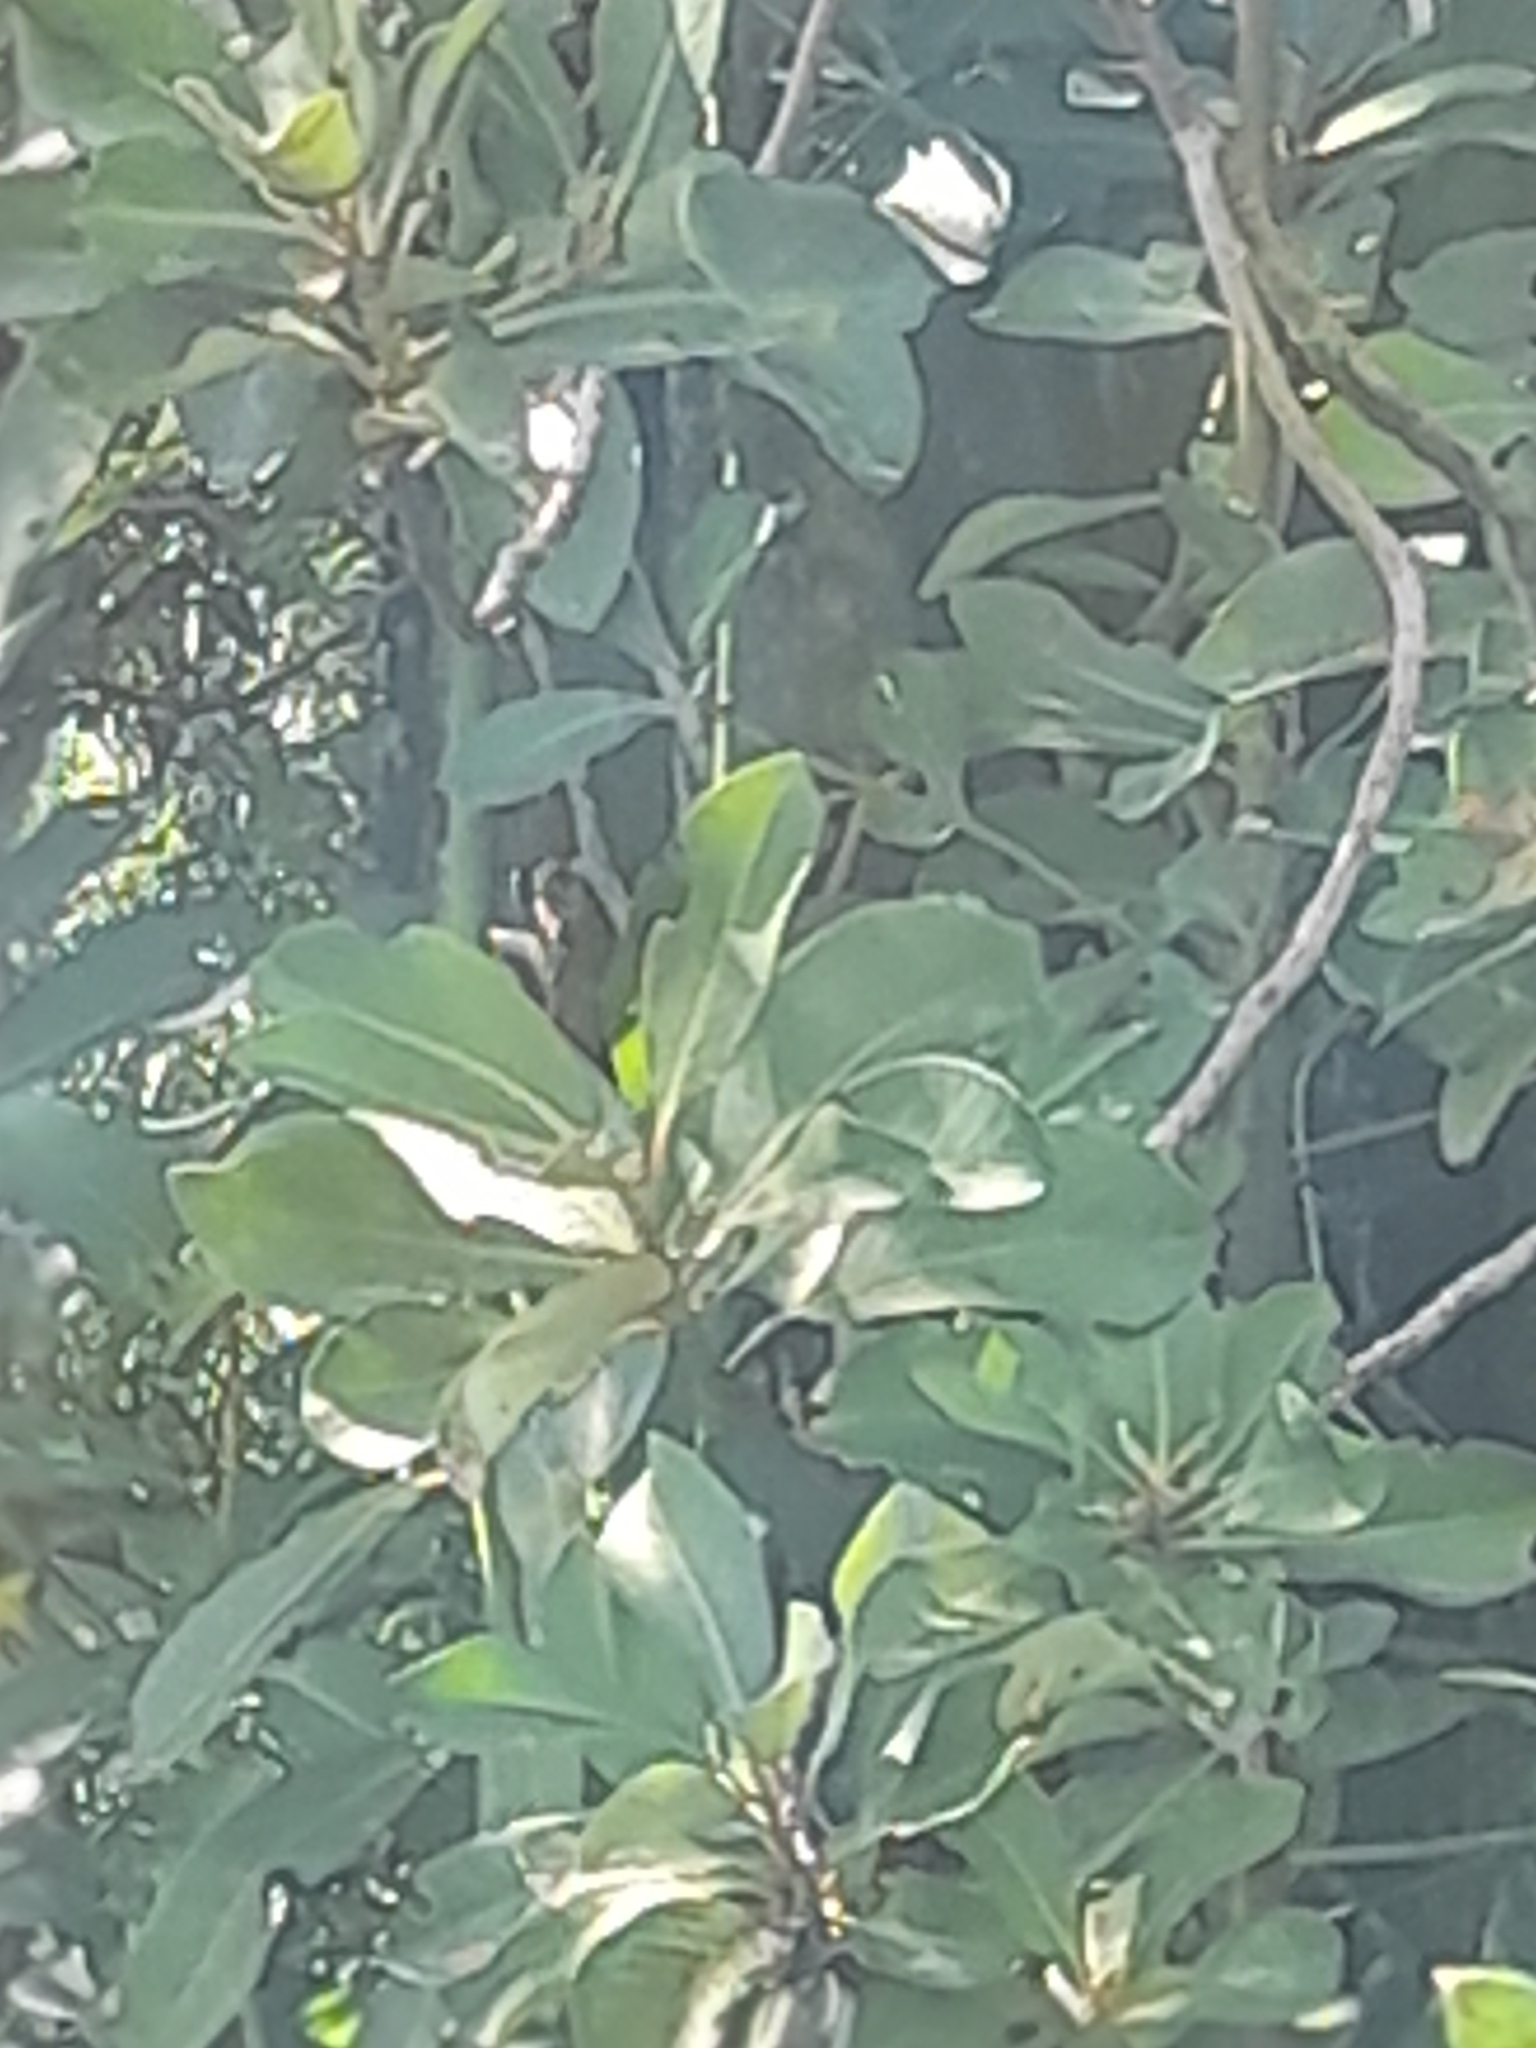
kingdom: Plantae
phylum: Tracheophyta
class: Magnoliopsida
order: Canellales
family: Winteraceae
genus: Drimys
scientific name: Drimys winteri
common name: Winter's-bark
